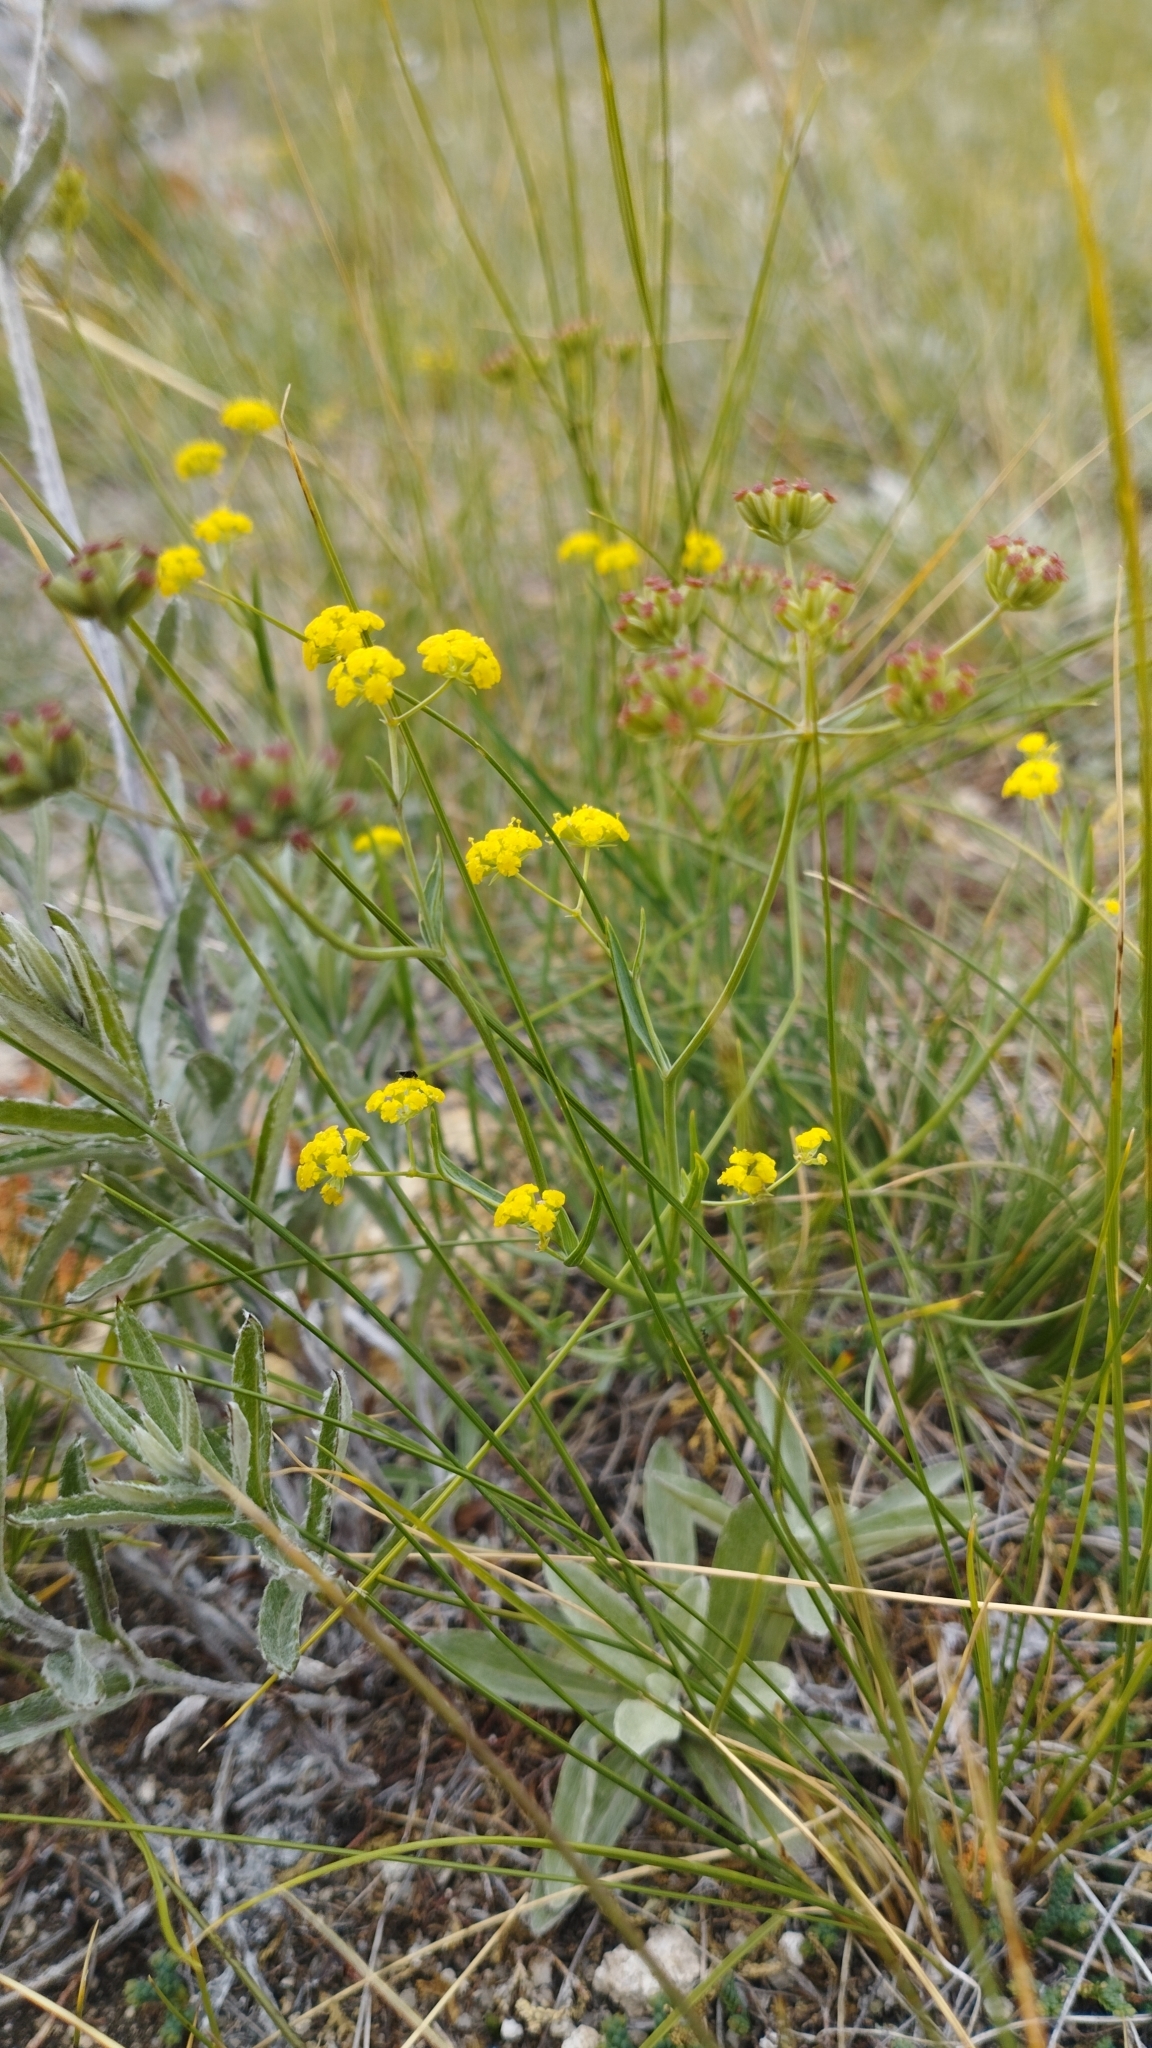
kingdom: Plantae
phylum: Tracheophyta
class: Magnoliopsida
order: Apiales
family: Apiaceae
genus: Bupleurum
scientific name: Bupleurum bicaule
